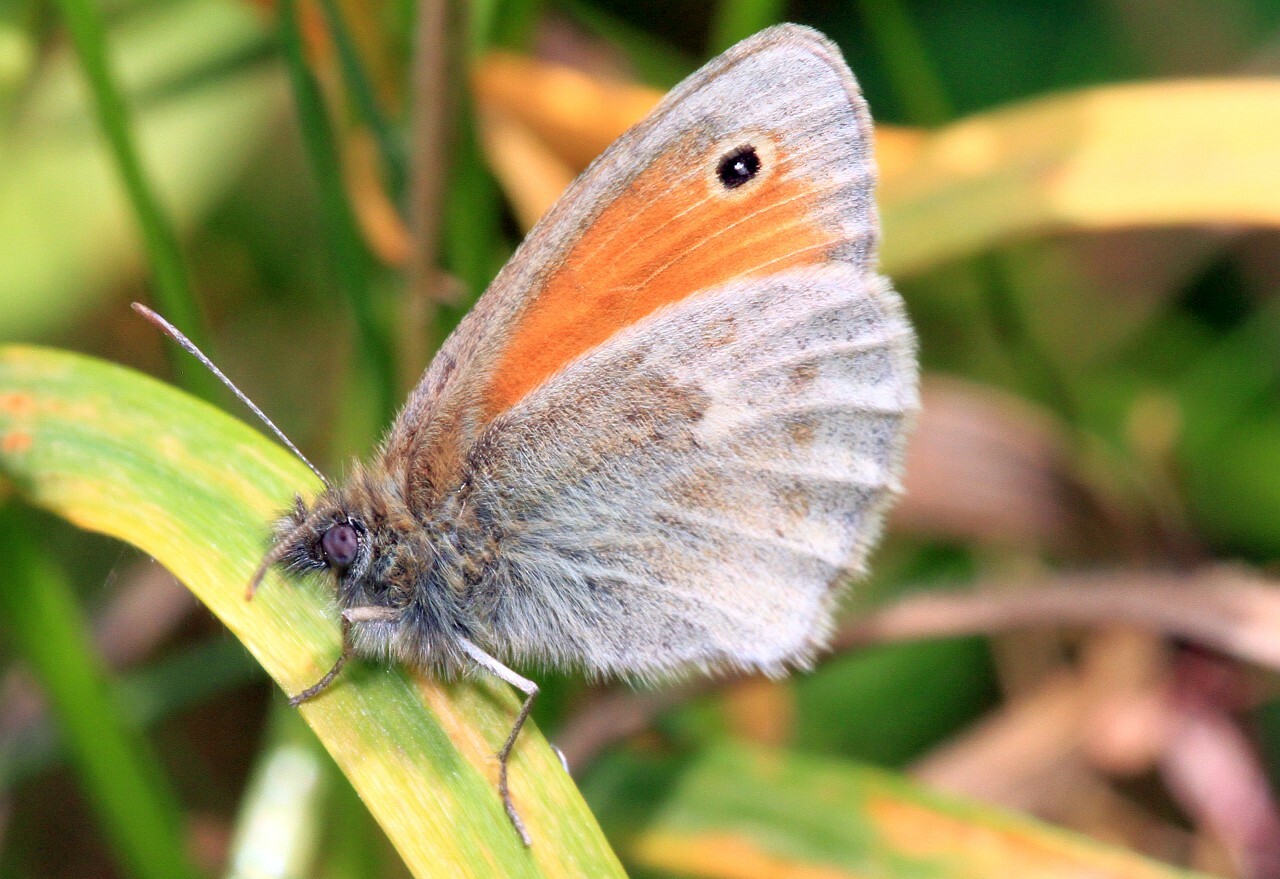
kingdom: Animalia
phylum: Arthropoda
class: Insecta
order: Lepidoptera
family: Nymphalidae
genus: Coenonympha
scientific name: Coenonympha pamphilus
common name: Small heath
